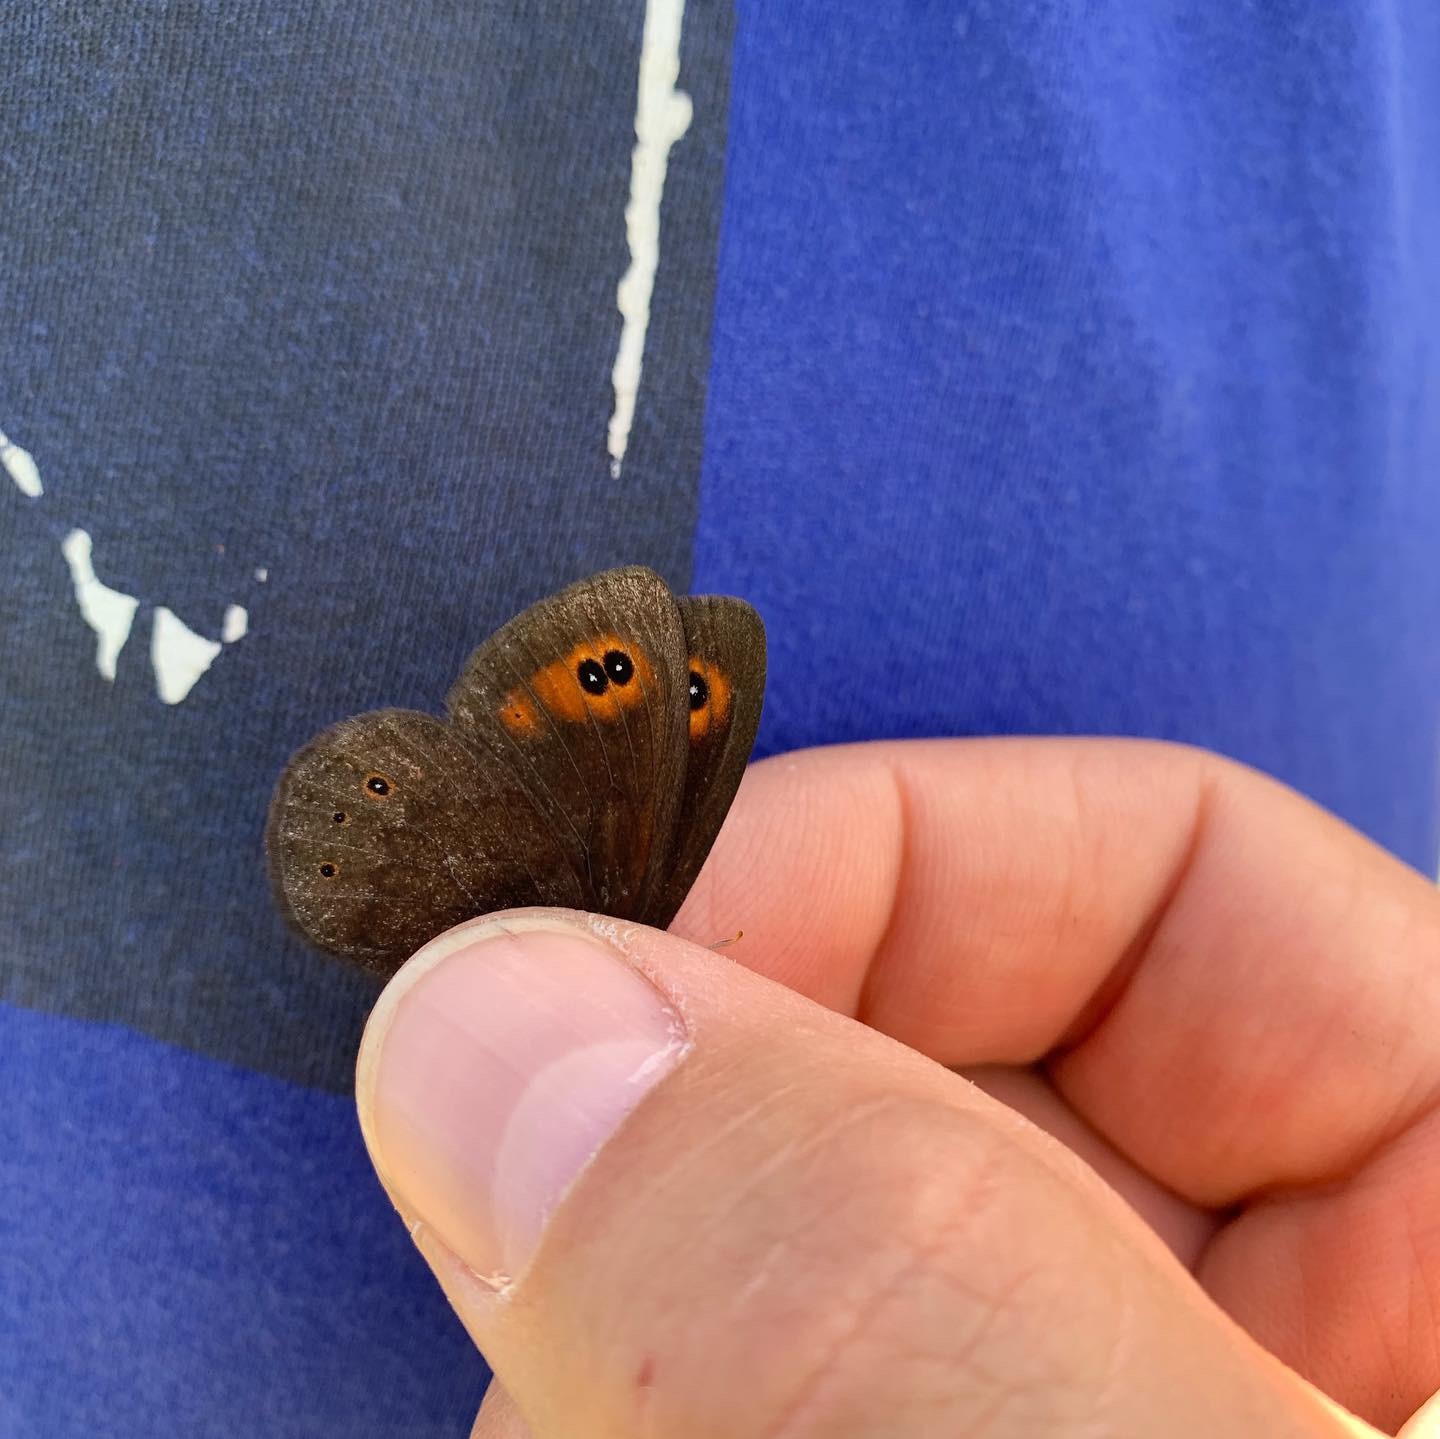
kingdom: Animalia
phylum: Arthropoda
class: Insecta
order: Lepidoptera
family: Nymphalidae
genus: Erebia
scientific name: Erebia epipsodea
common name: Common alpine
